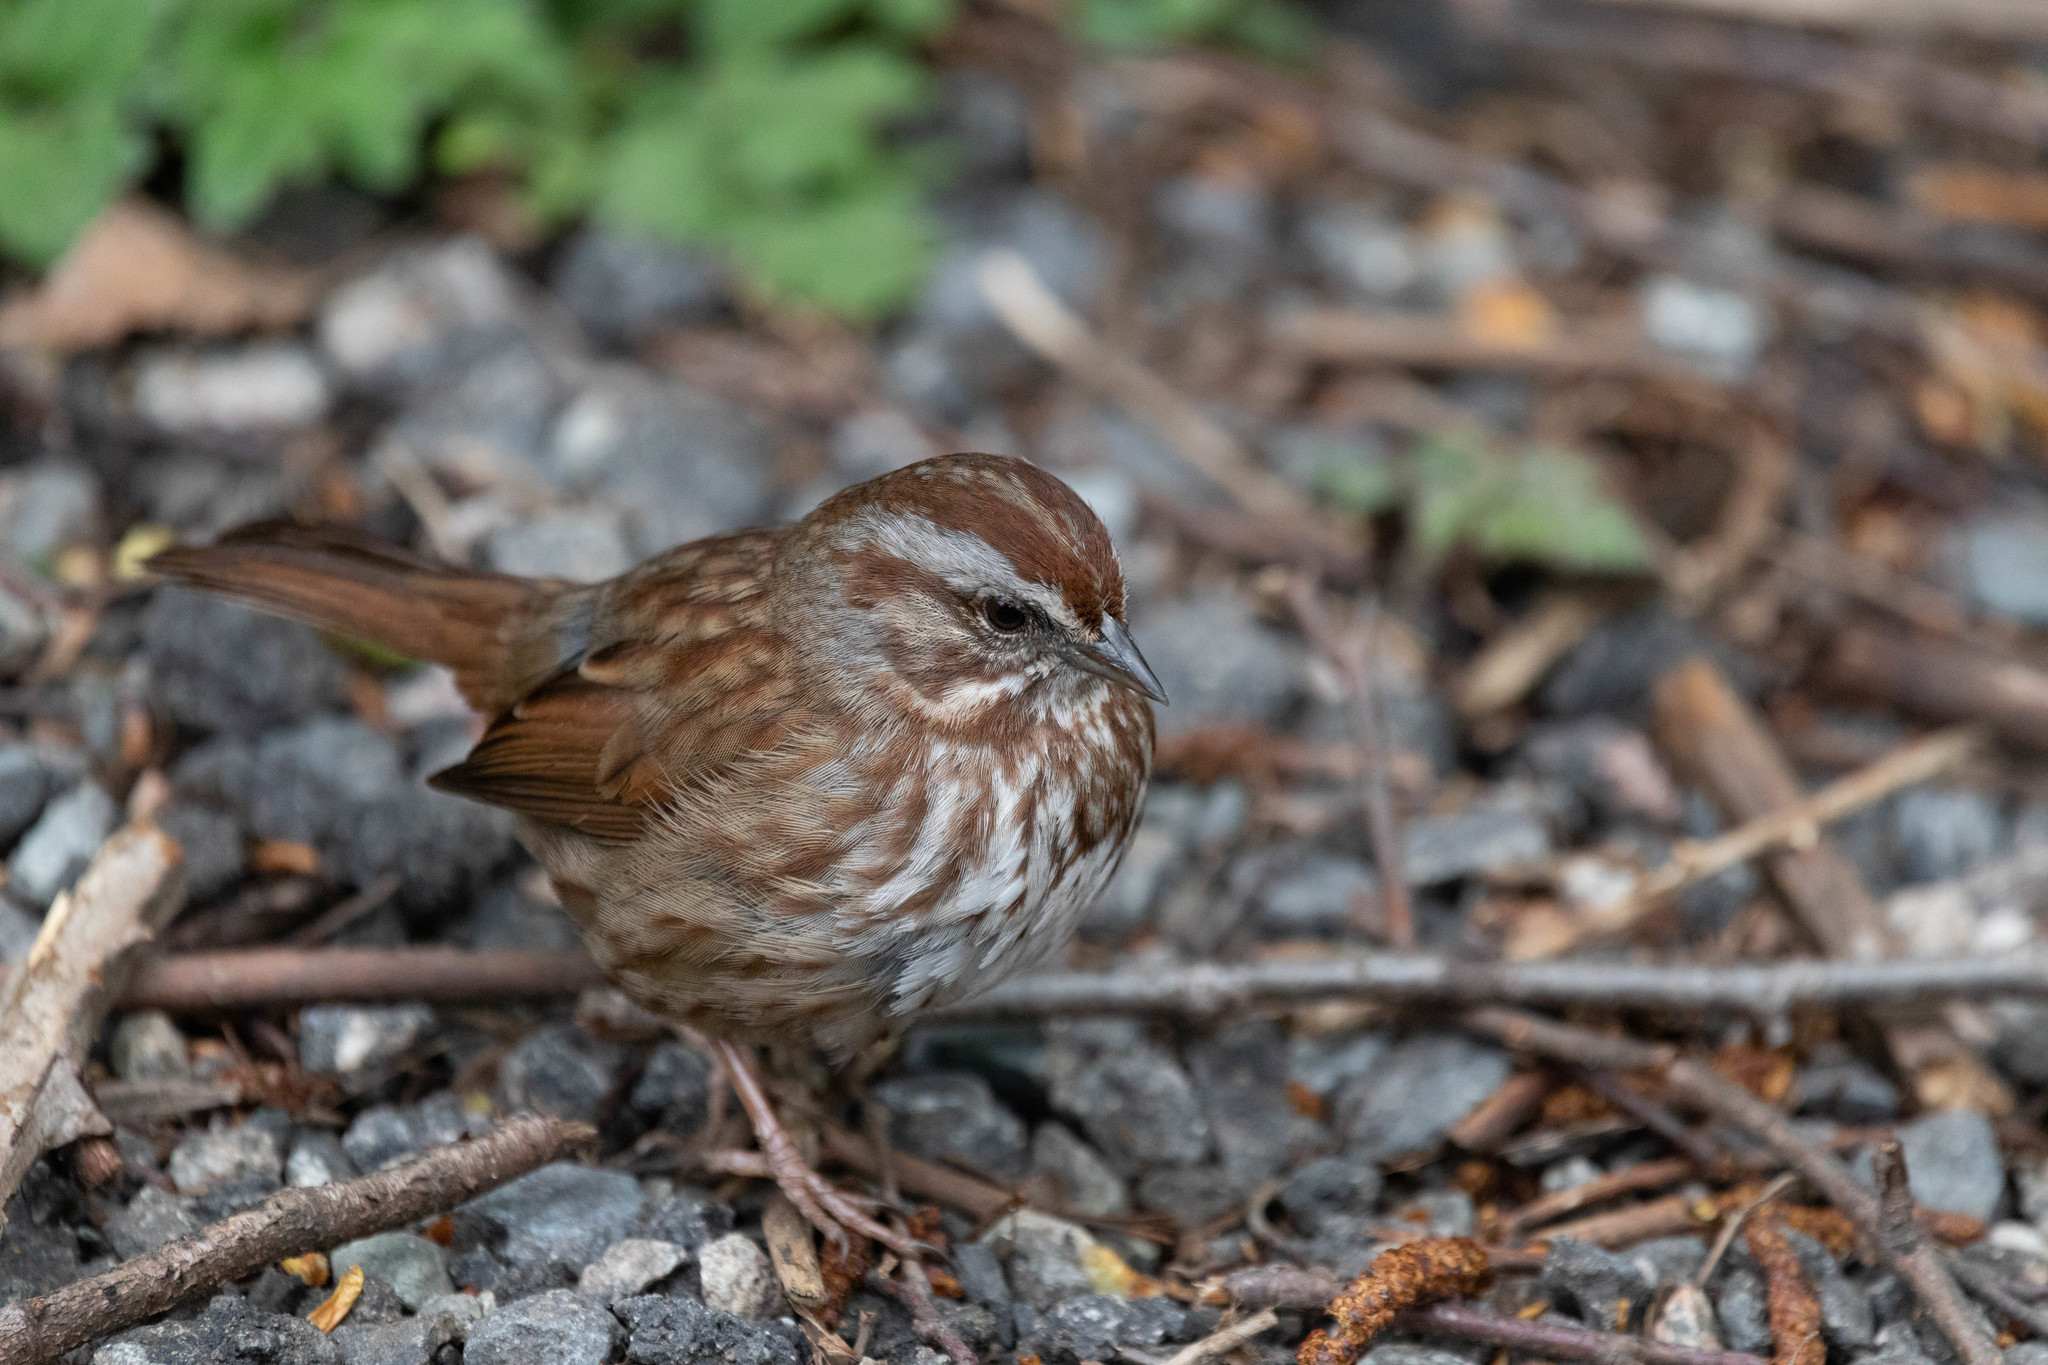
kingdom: Animalia
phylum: Chordata
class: Aves
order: Passeriformes
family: Passerellidae
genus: Melospiza
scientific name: Melospiza melodia
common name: Song sparrow
